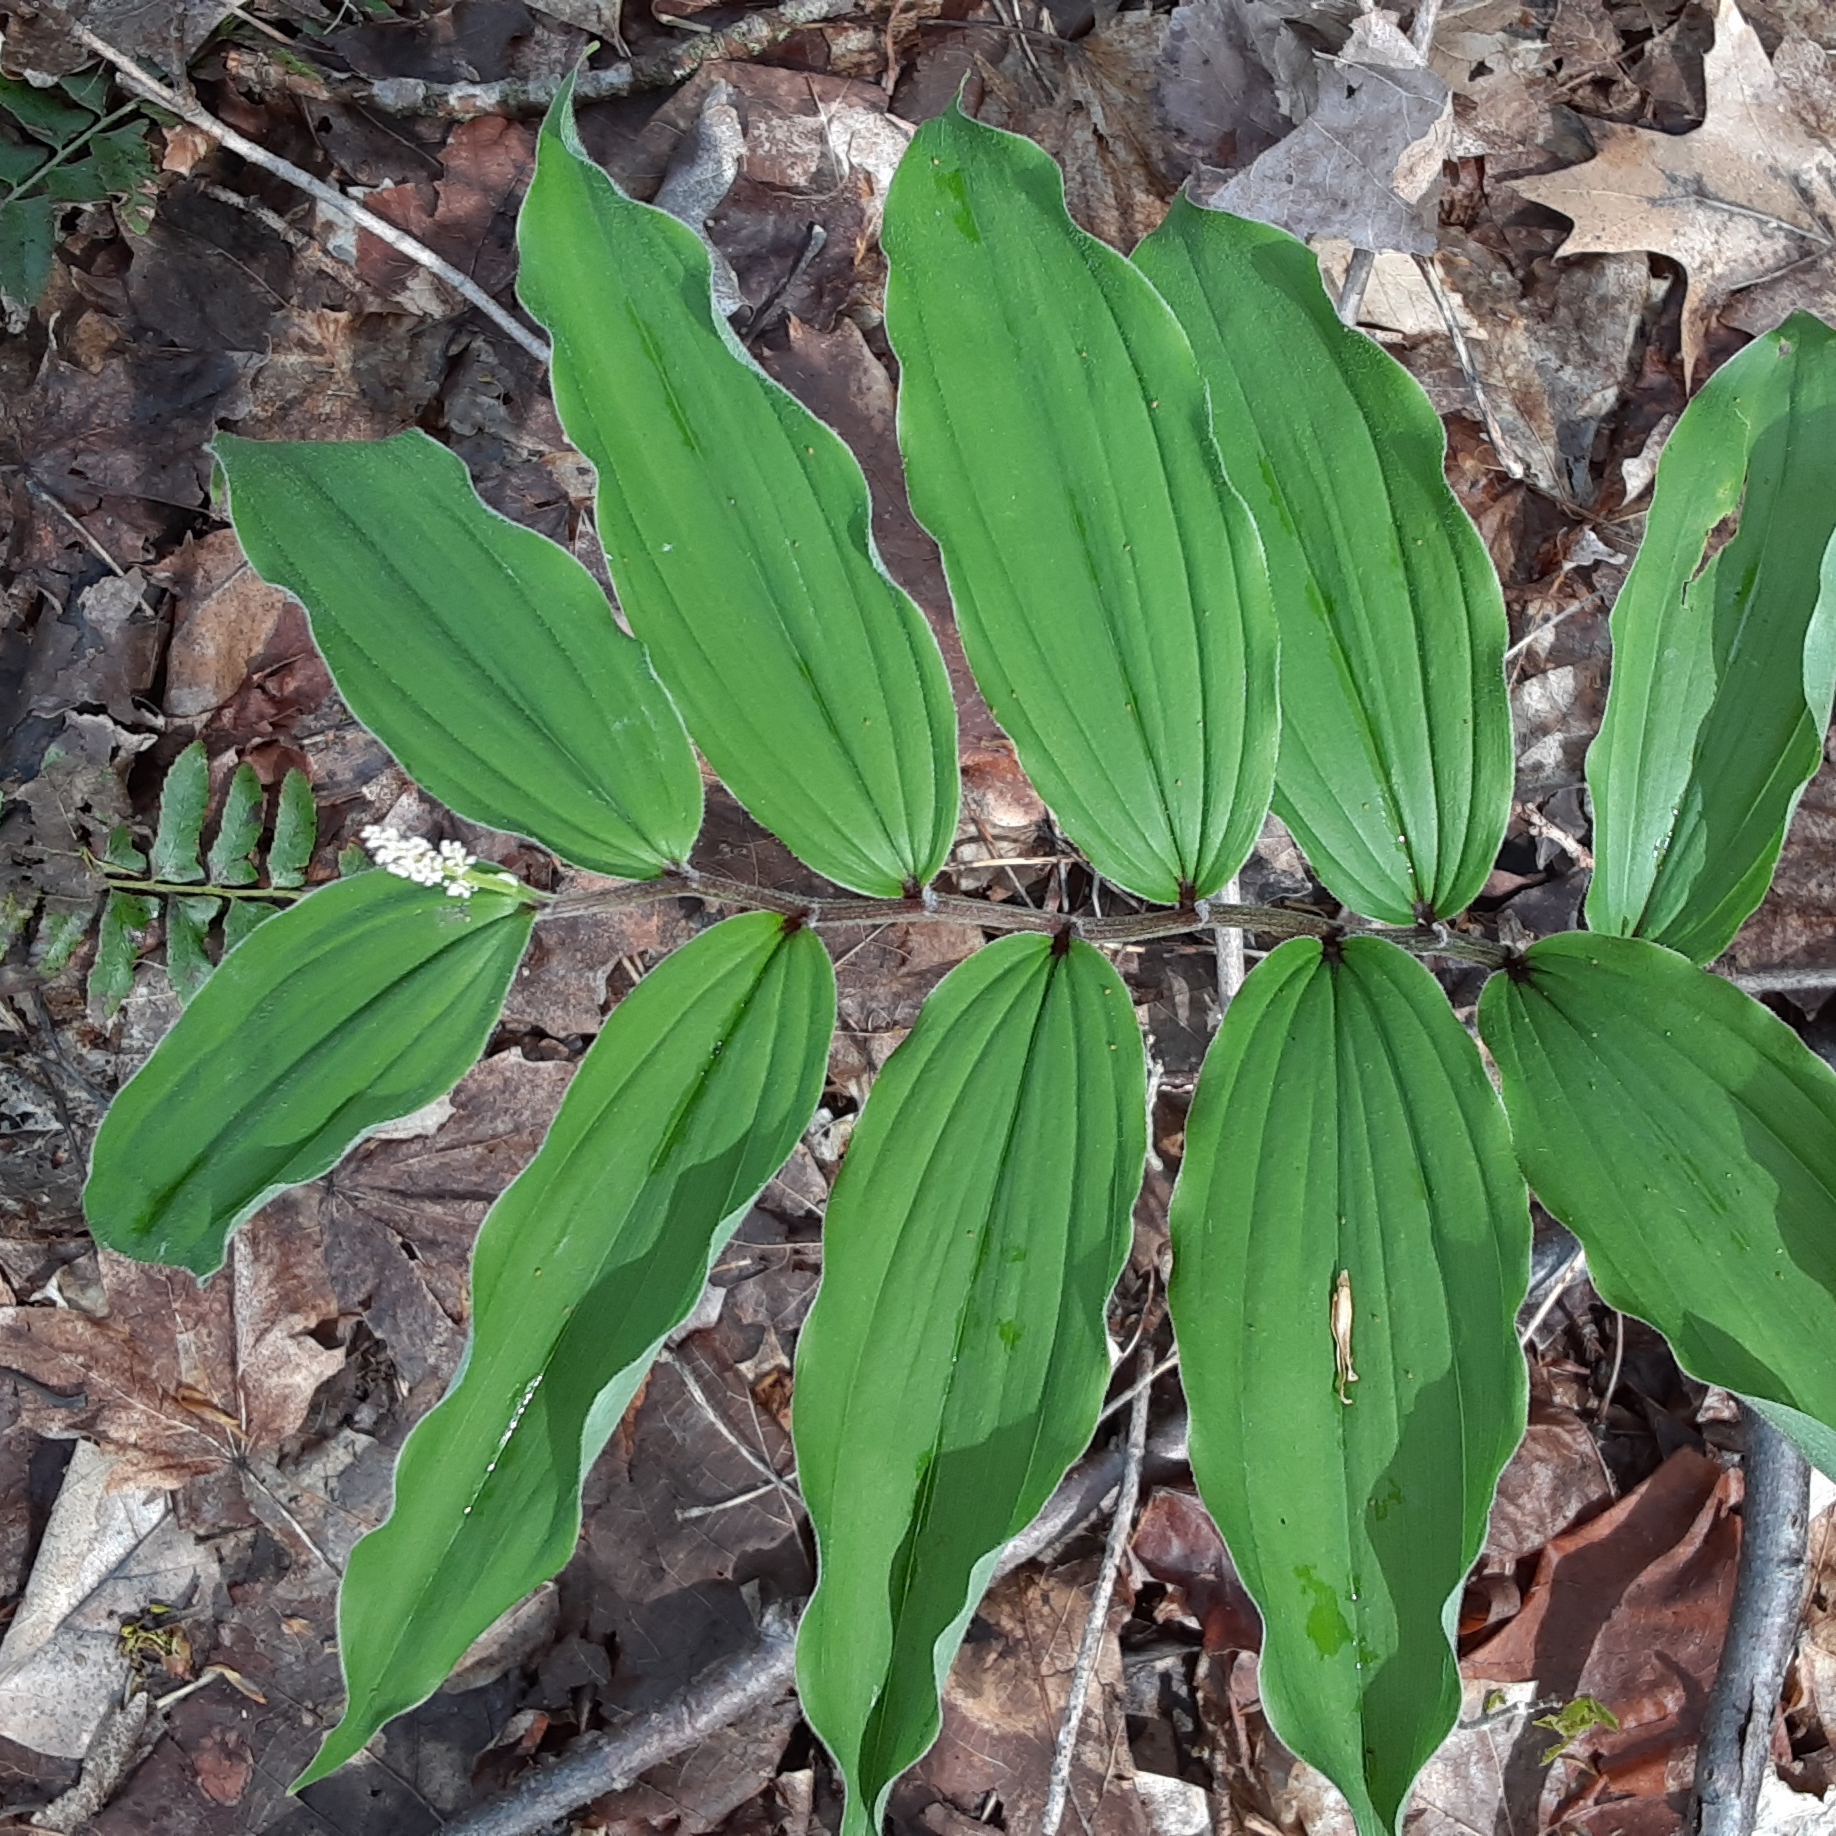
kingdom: Plantae
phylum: Tracheophyta
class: Liliopsida
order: Asparagales
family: Asparagaceae
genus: Maianthemum
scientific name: Maianthemum racemosum
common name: False spikenard
